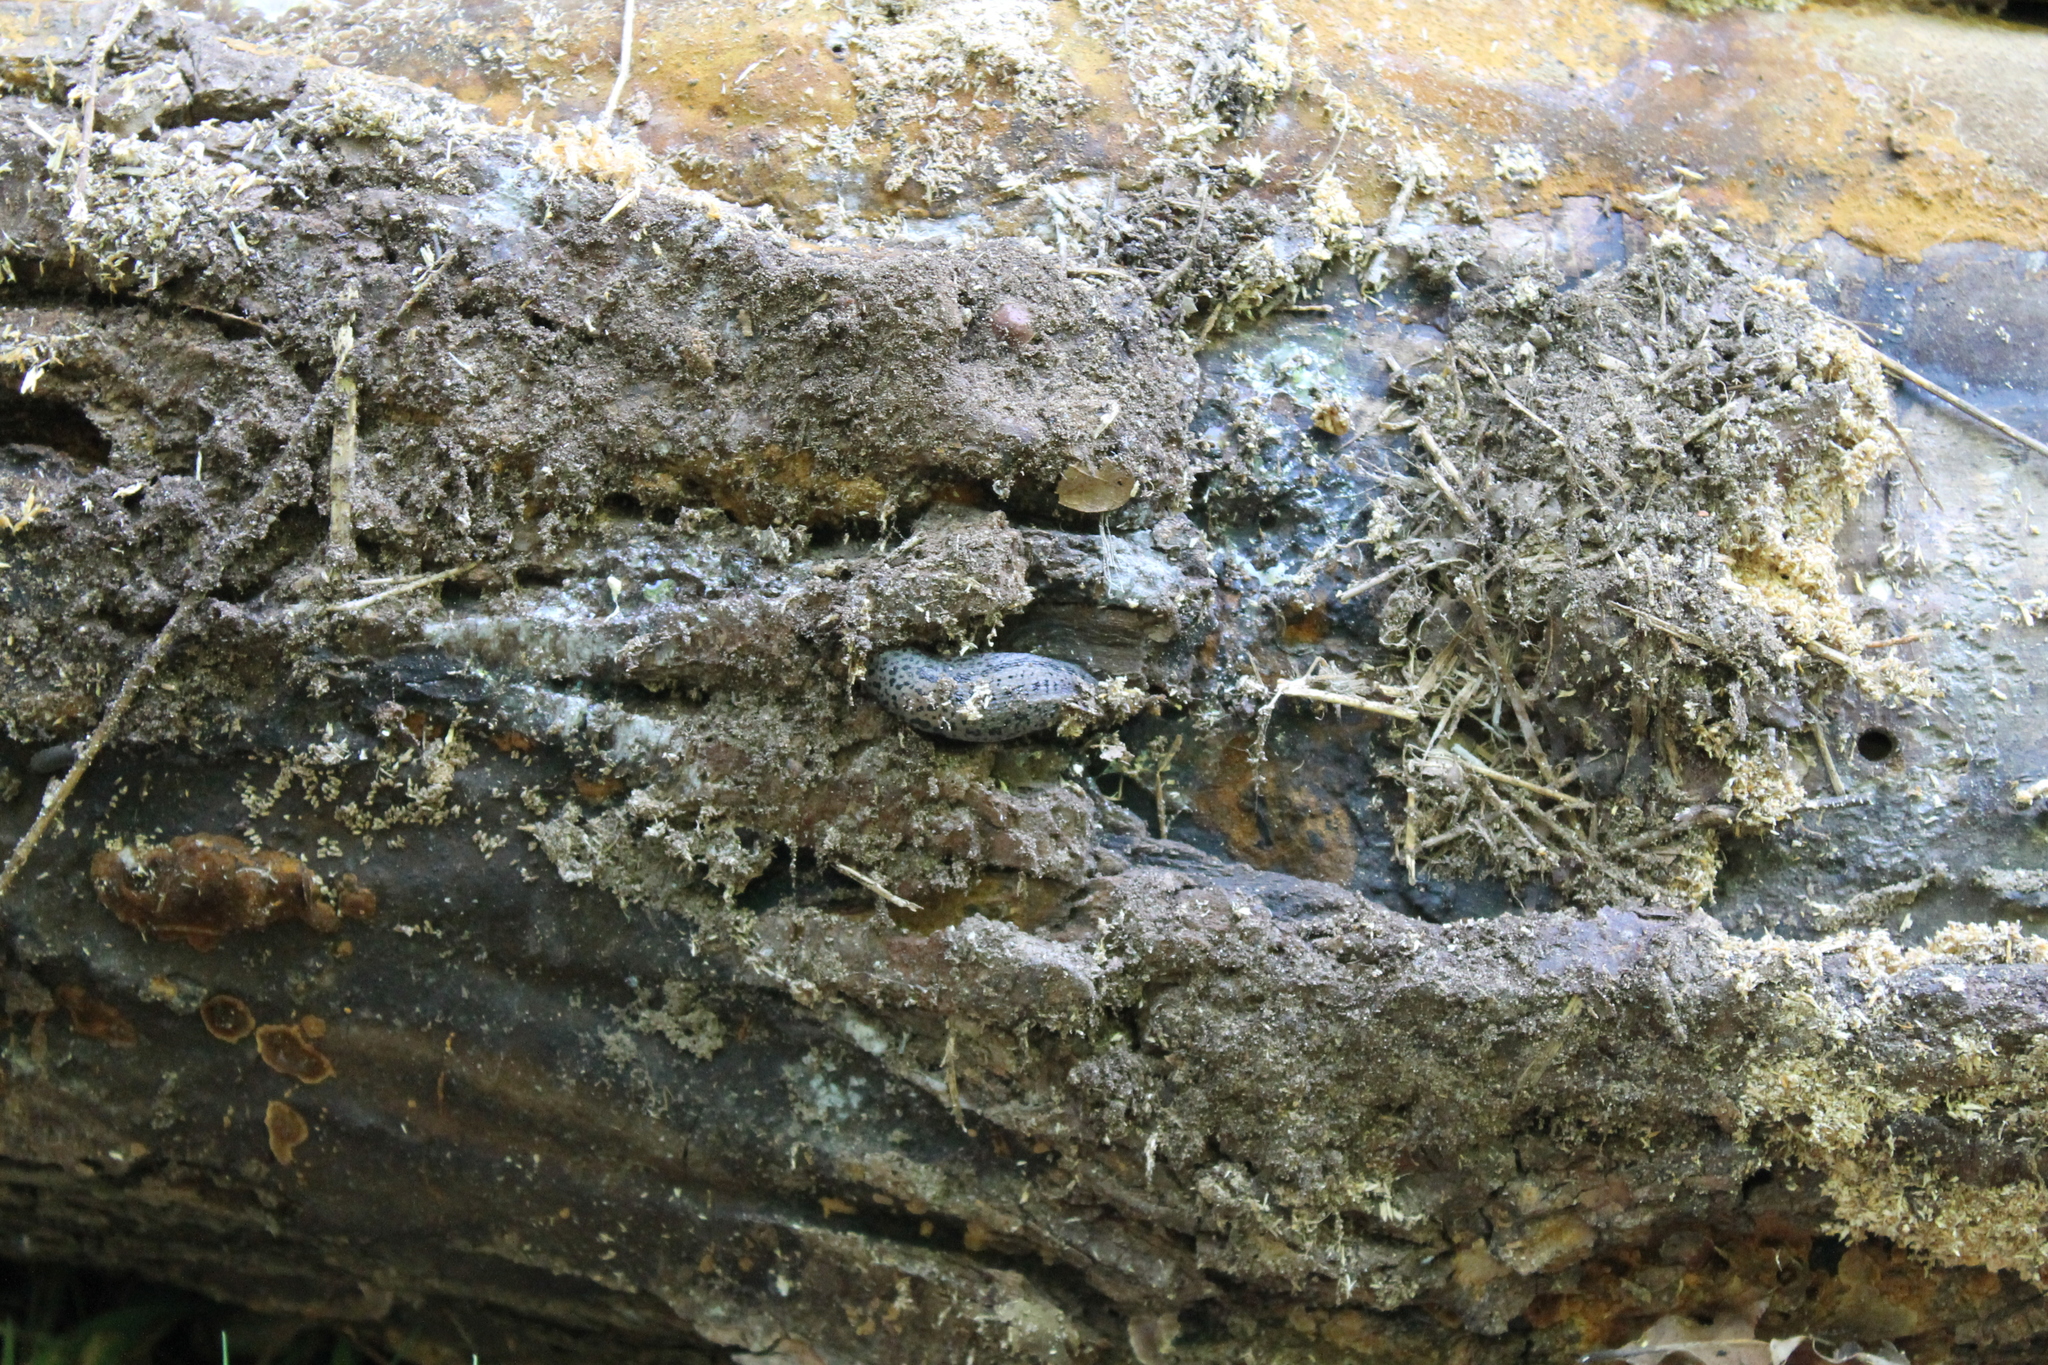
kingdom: Animalia
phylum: Mollusca
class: Gastropoda
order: Stylommatophora
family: Limacidae
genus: Limax
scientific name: Limax maximus
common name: Great grey slug
